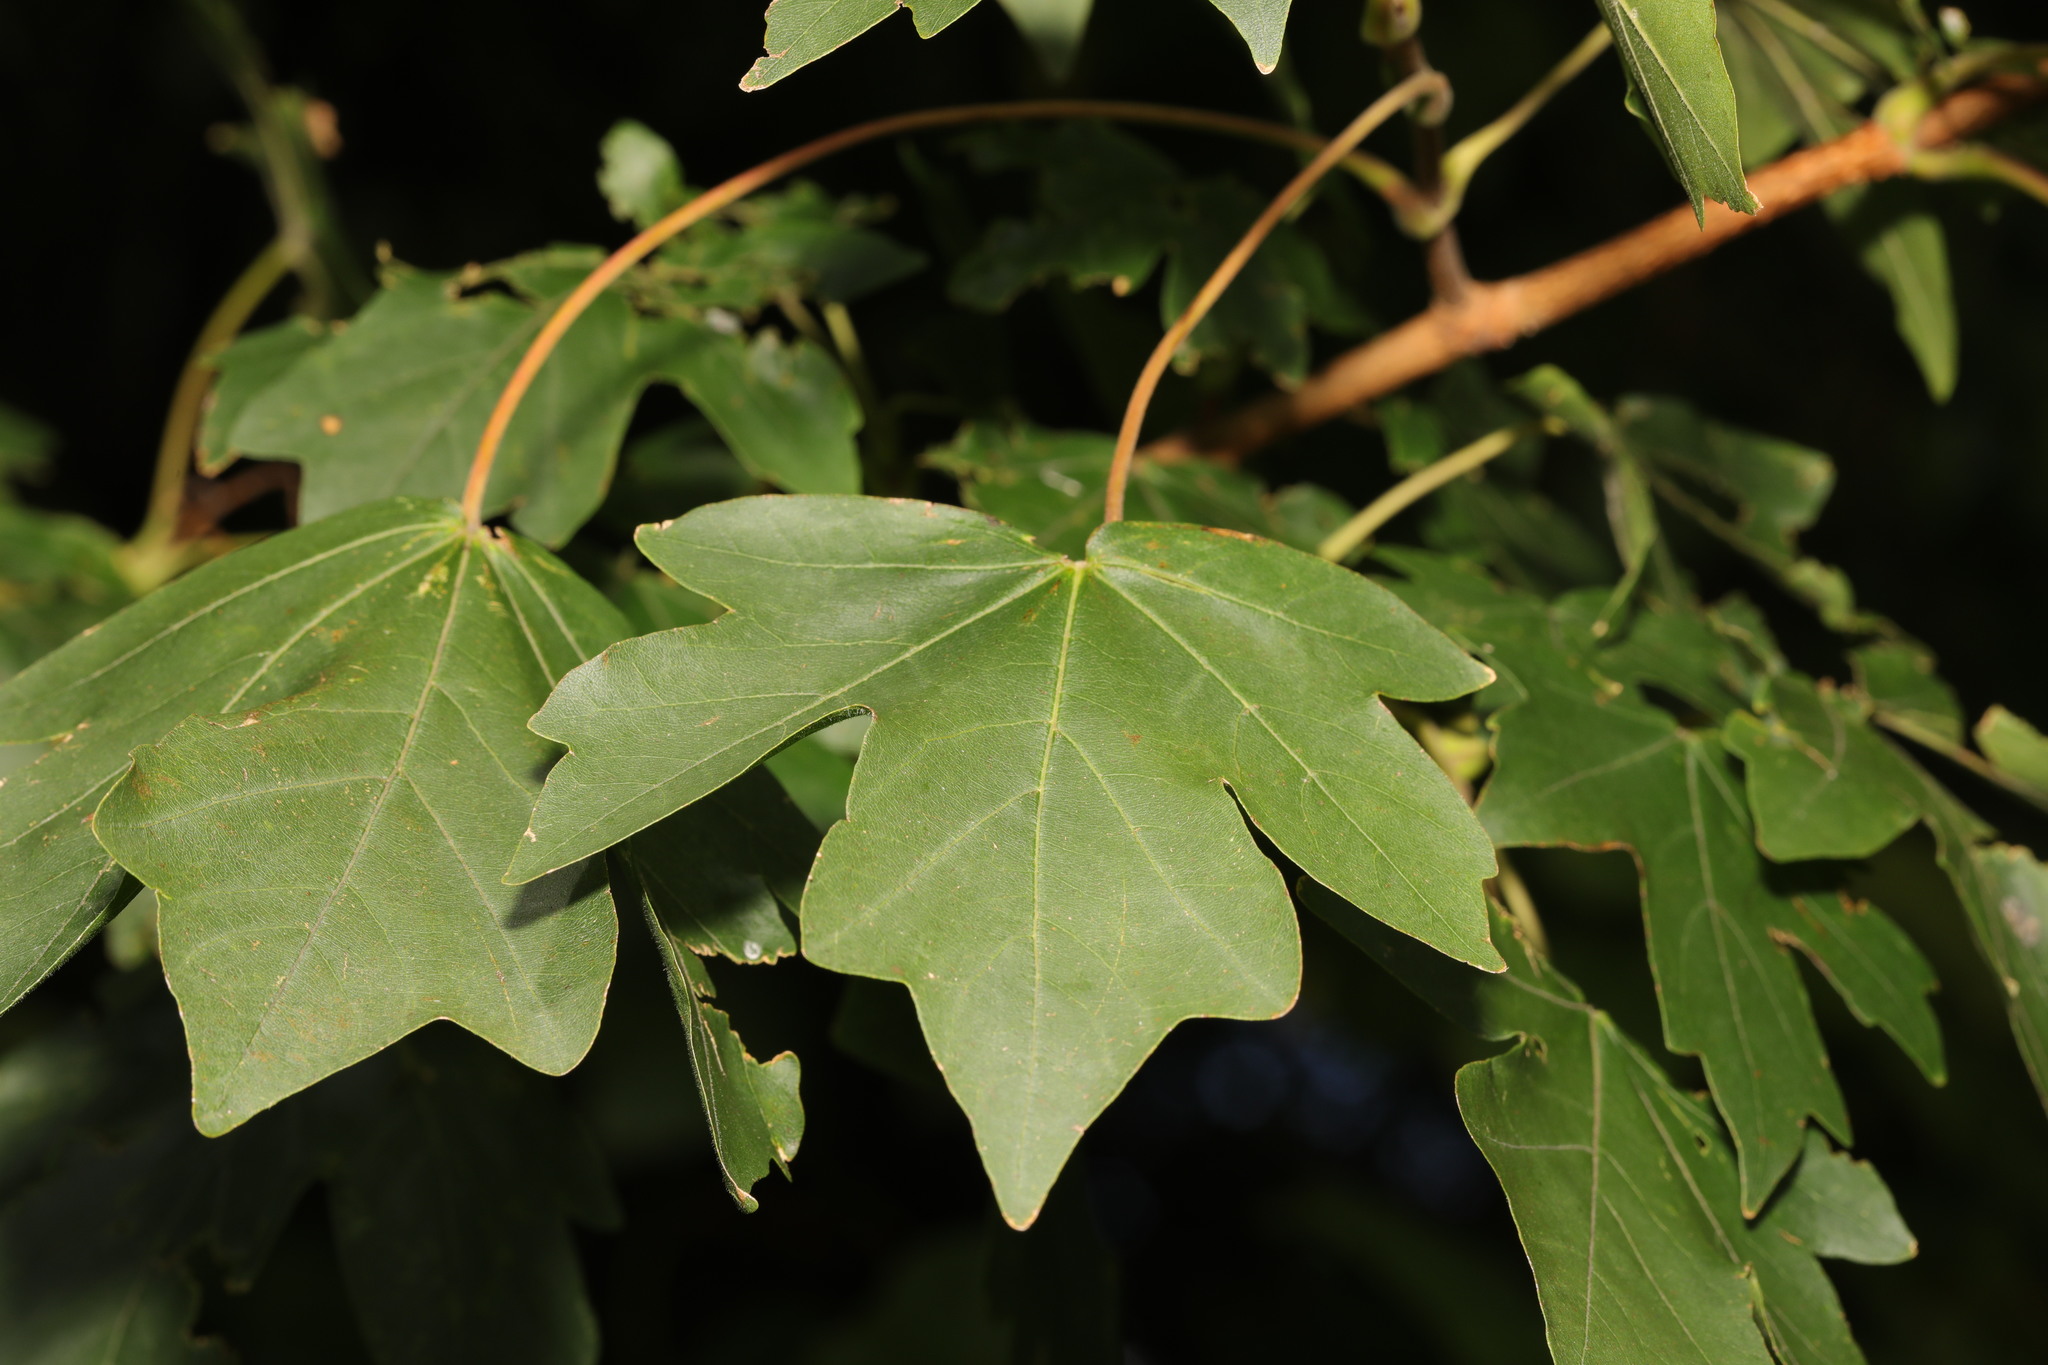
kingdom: Plantae
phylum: Tracheophyta
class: Magnoliopsida
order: Sapindales
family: Sapindaceae
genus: Acer
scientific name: Acer campestre
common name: Field maple
